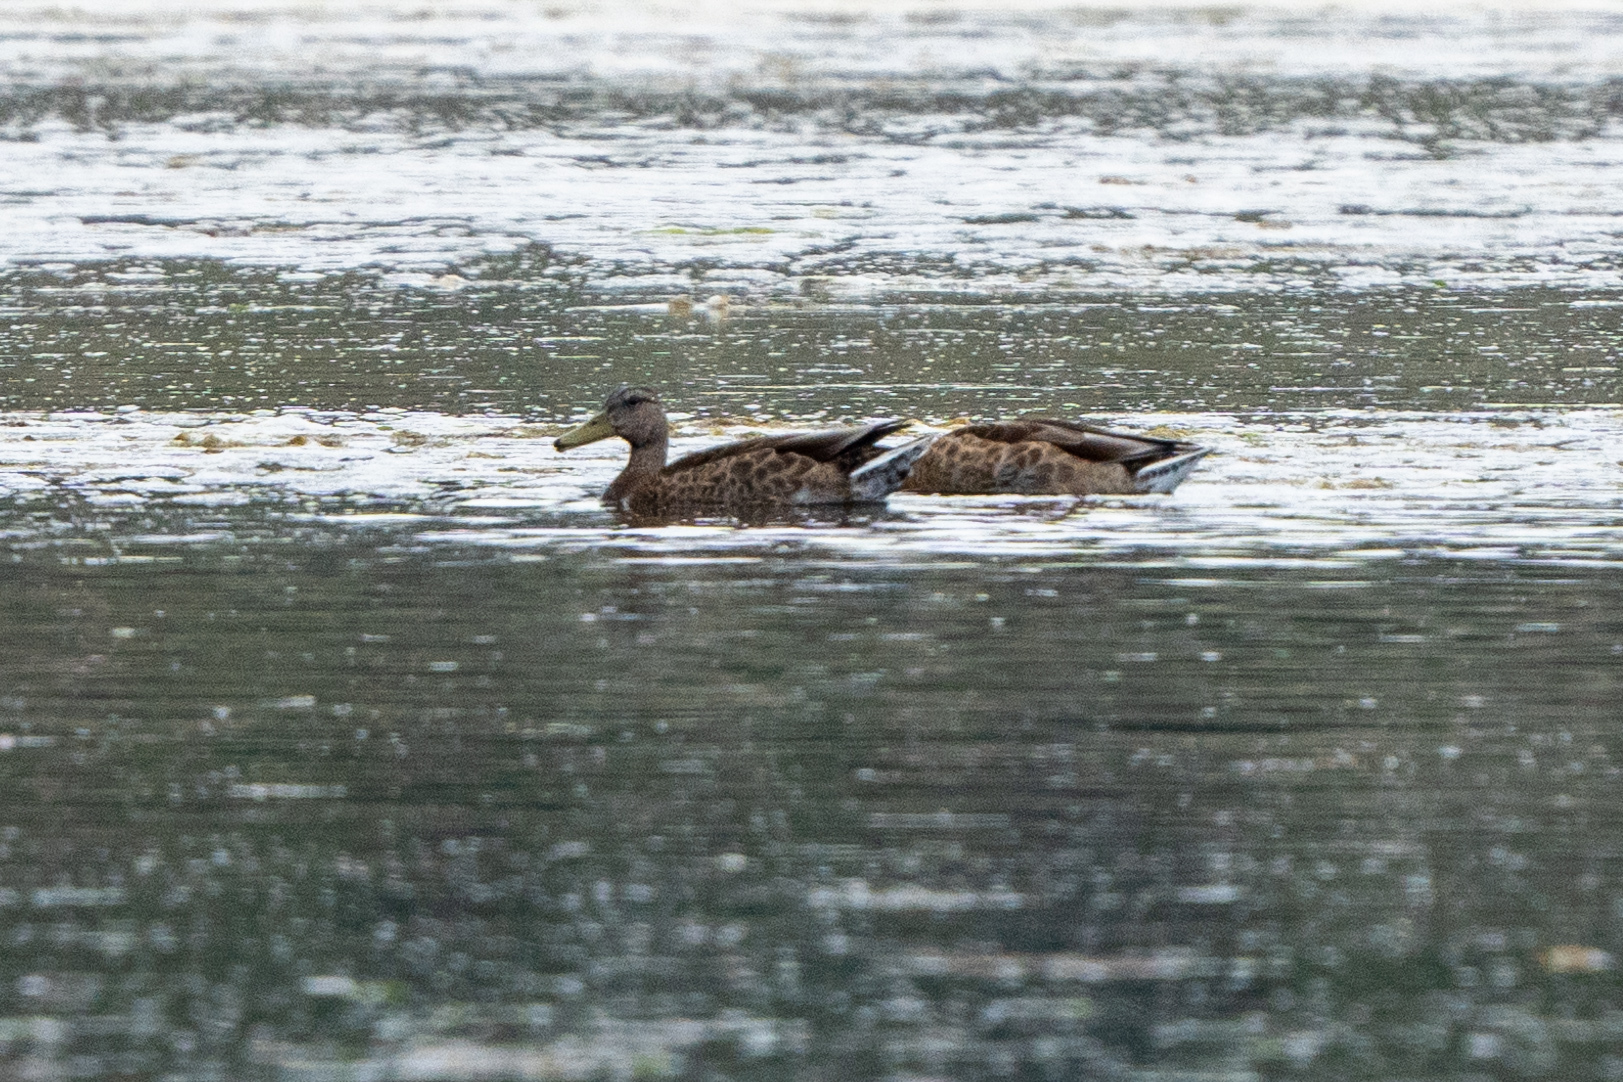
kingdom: Animalia
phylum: Chordata
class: Aves
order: Anseriformes
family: Anatidae
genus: Anas
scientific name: Anas platyrhynchos
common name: Mallard
